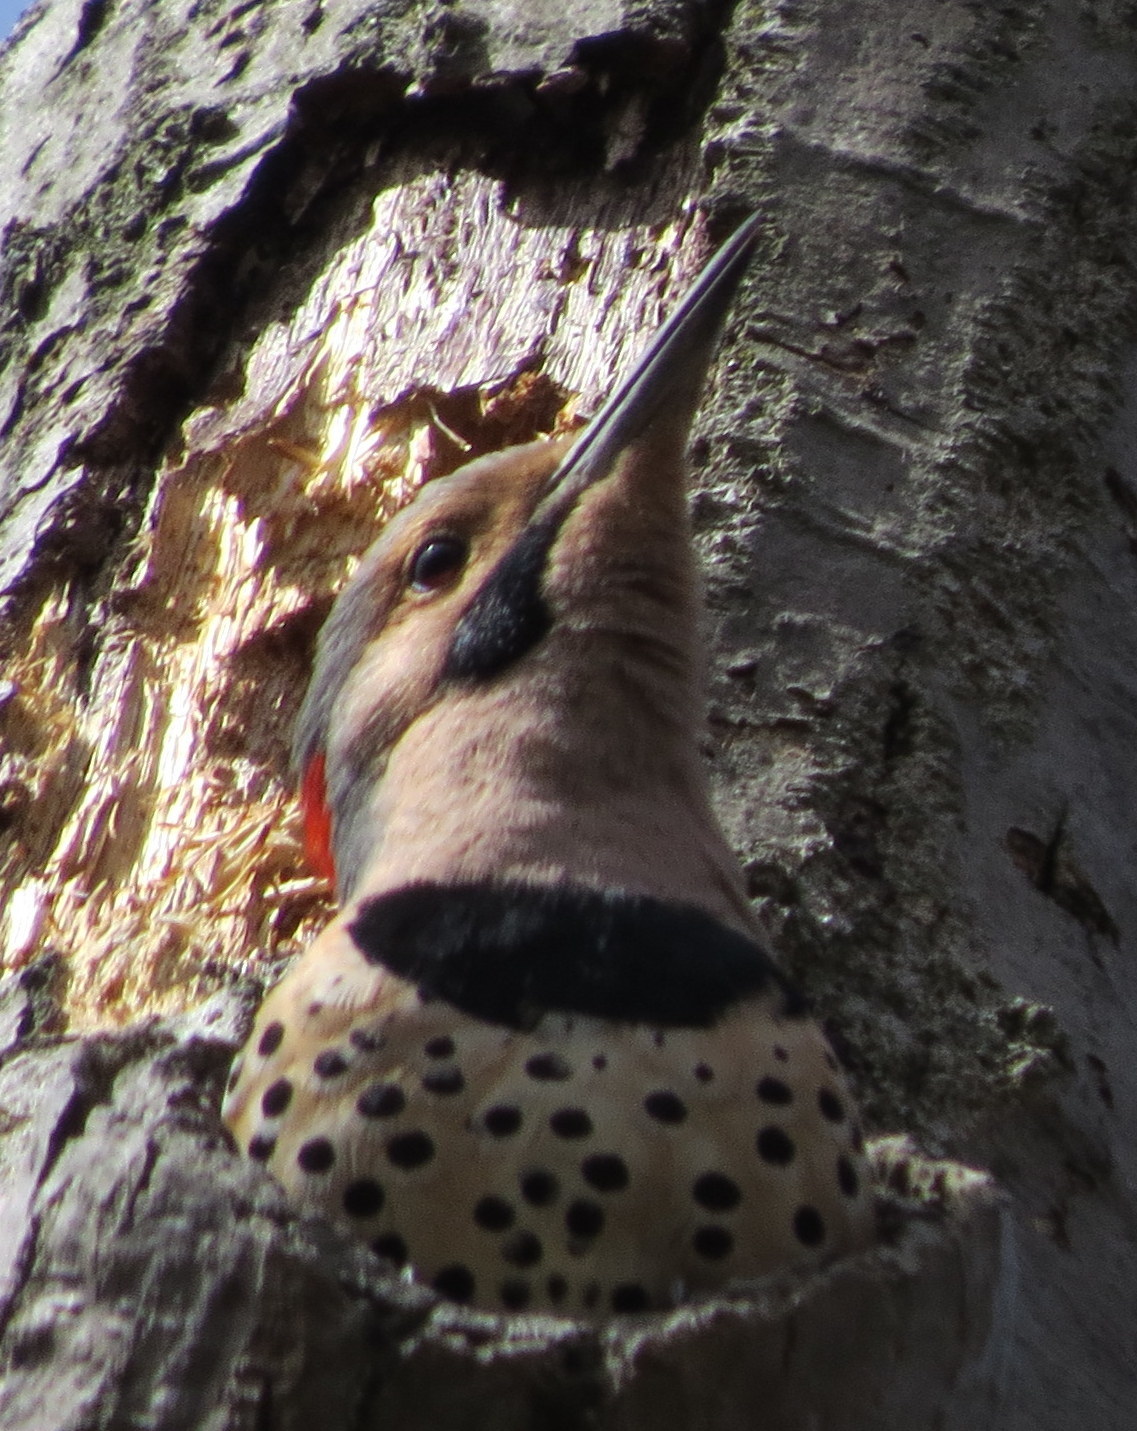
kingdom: Animalia
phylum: Chordata
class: Aves
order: Piciformes
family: Picidae
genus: Colaptes
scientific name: Colaptes auratus
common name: Northern flicker
